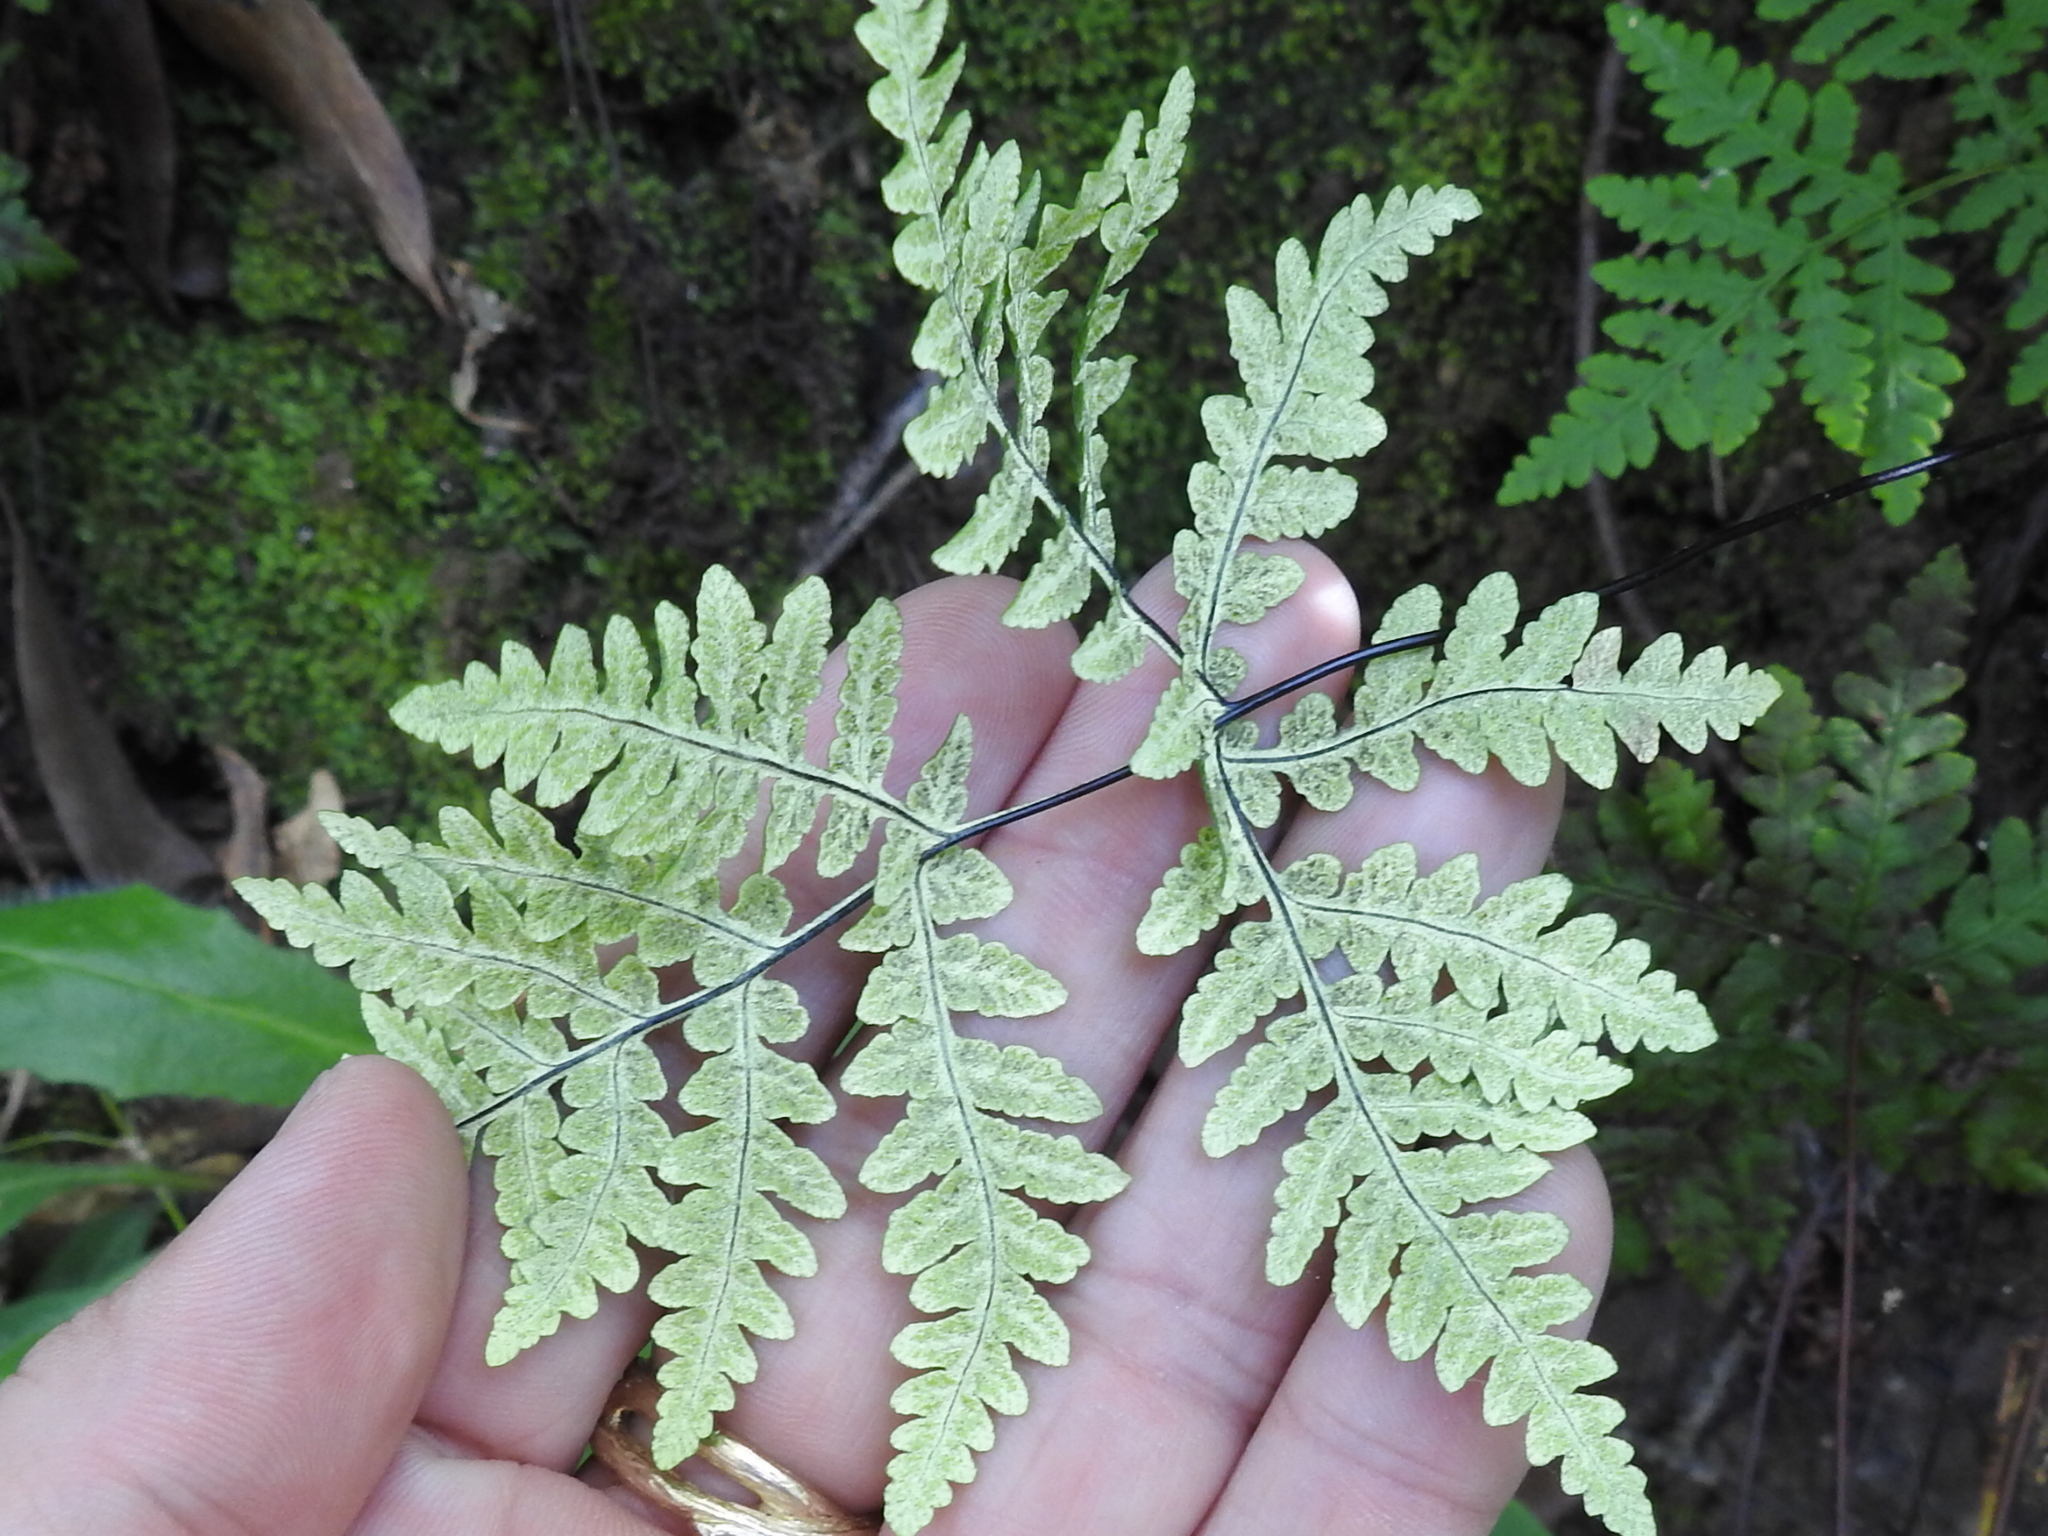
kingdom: Plantae
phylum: Tracheophyta
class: Polypodiopsida
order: Polypodiales
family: Pteridaceae
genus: Pentagramma
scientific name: Pentagramma triangularis
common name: Gold fern
